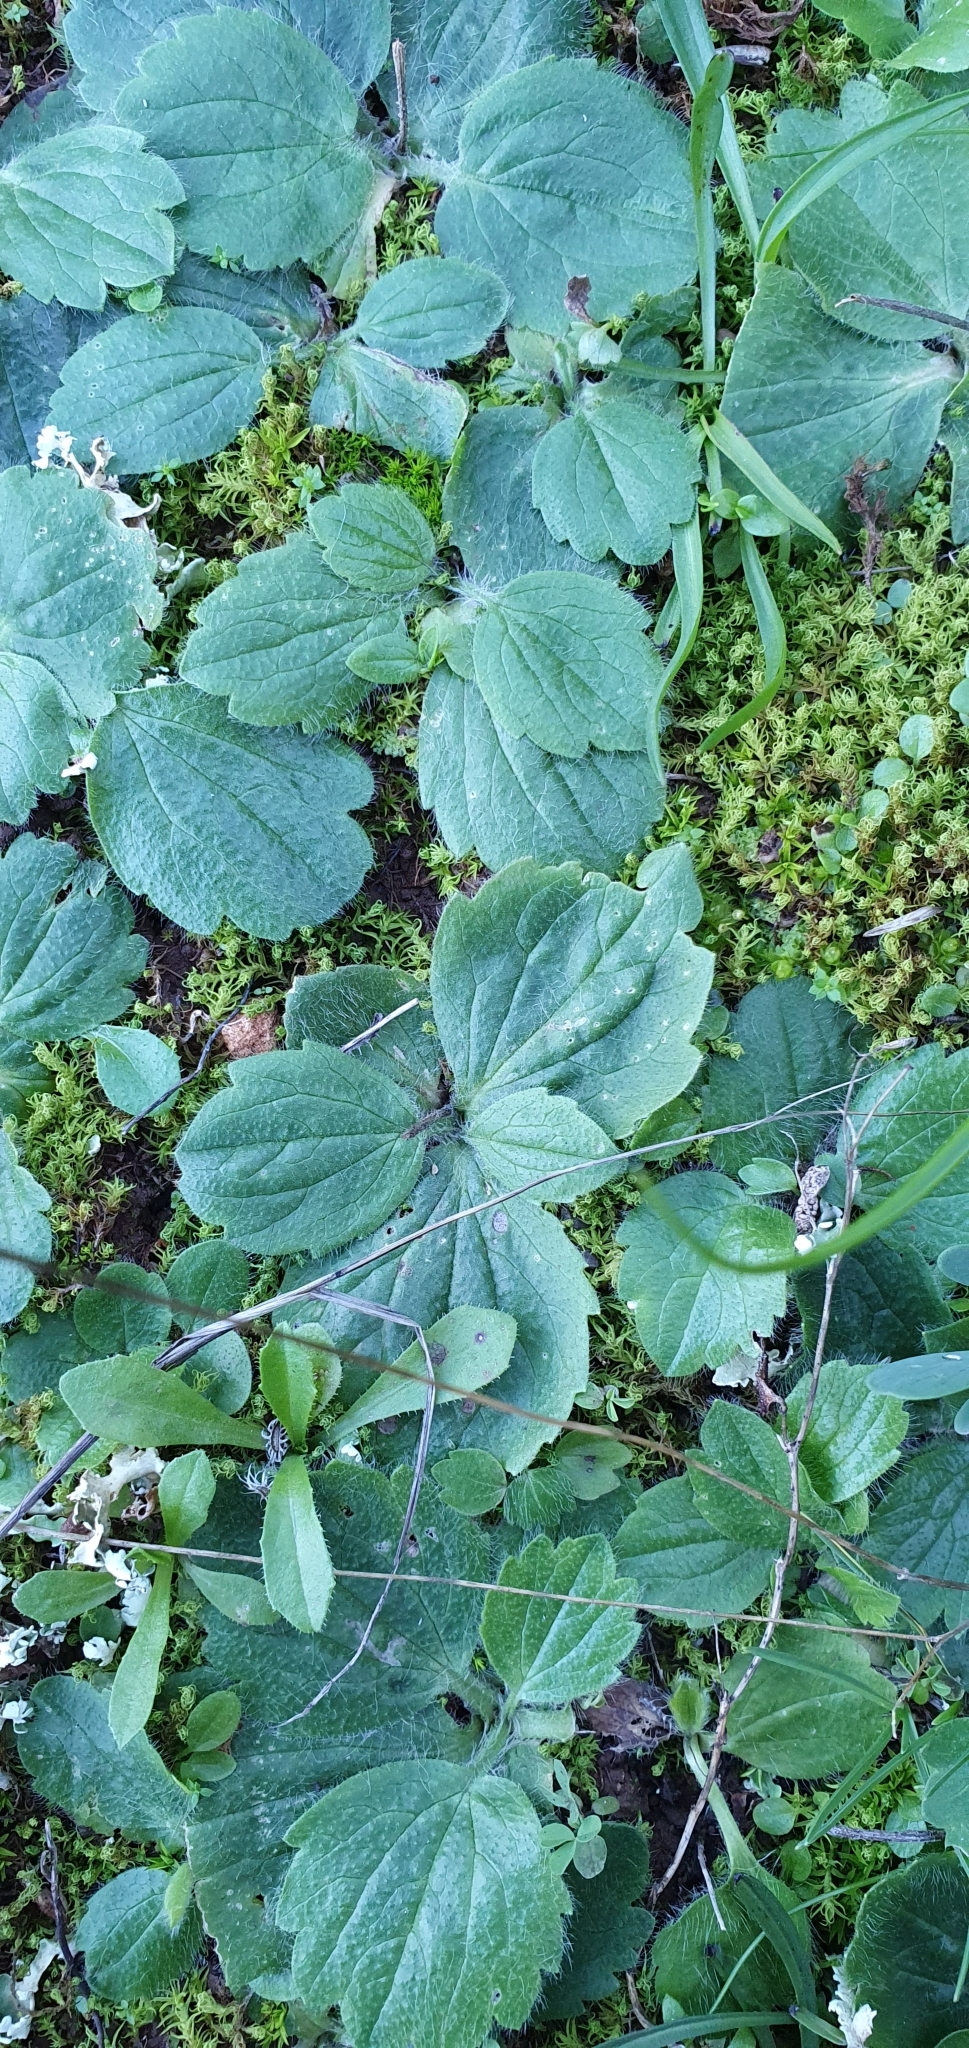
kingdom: Plantae
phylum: Tracheophyta
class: Magnoliopsida
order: Ranunculales
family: Ranunculaceae
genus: Ranunculus
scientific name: Ranunculus bullatus
